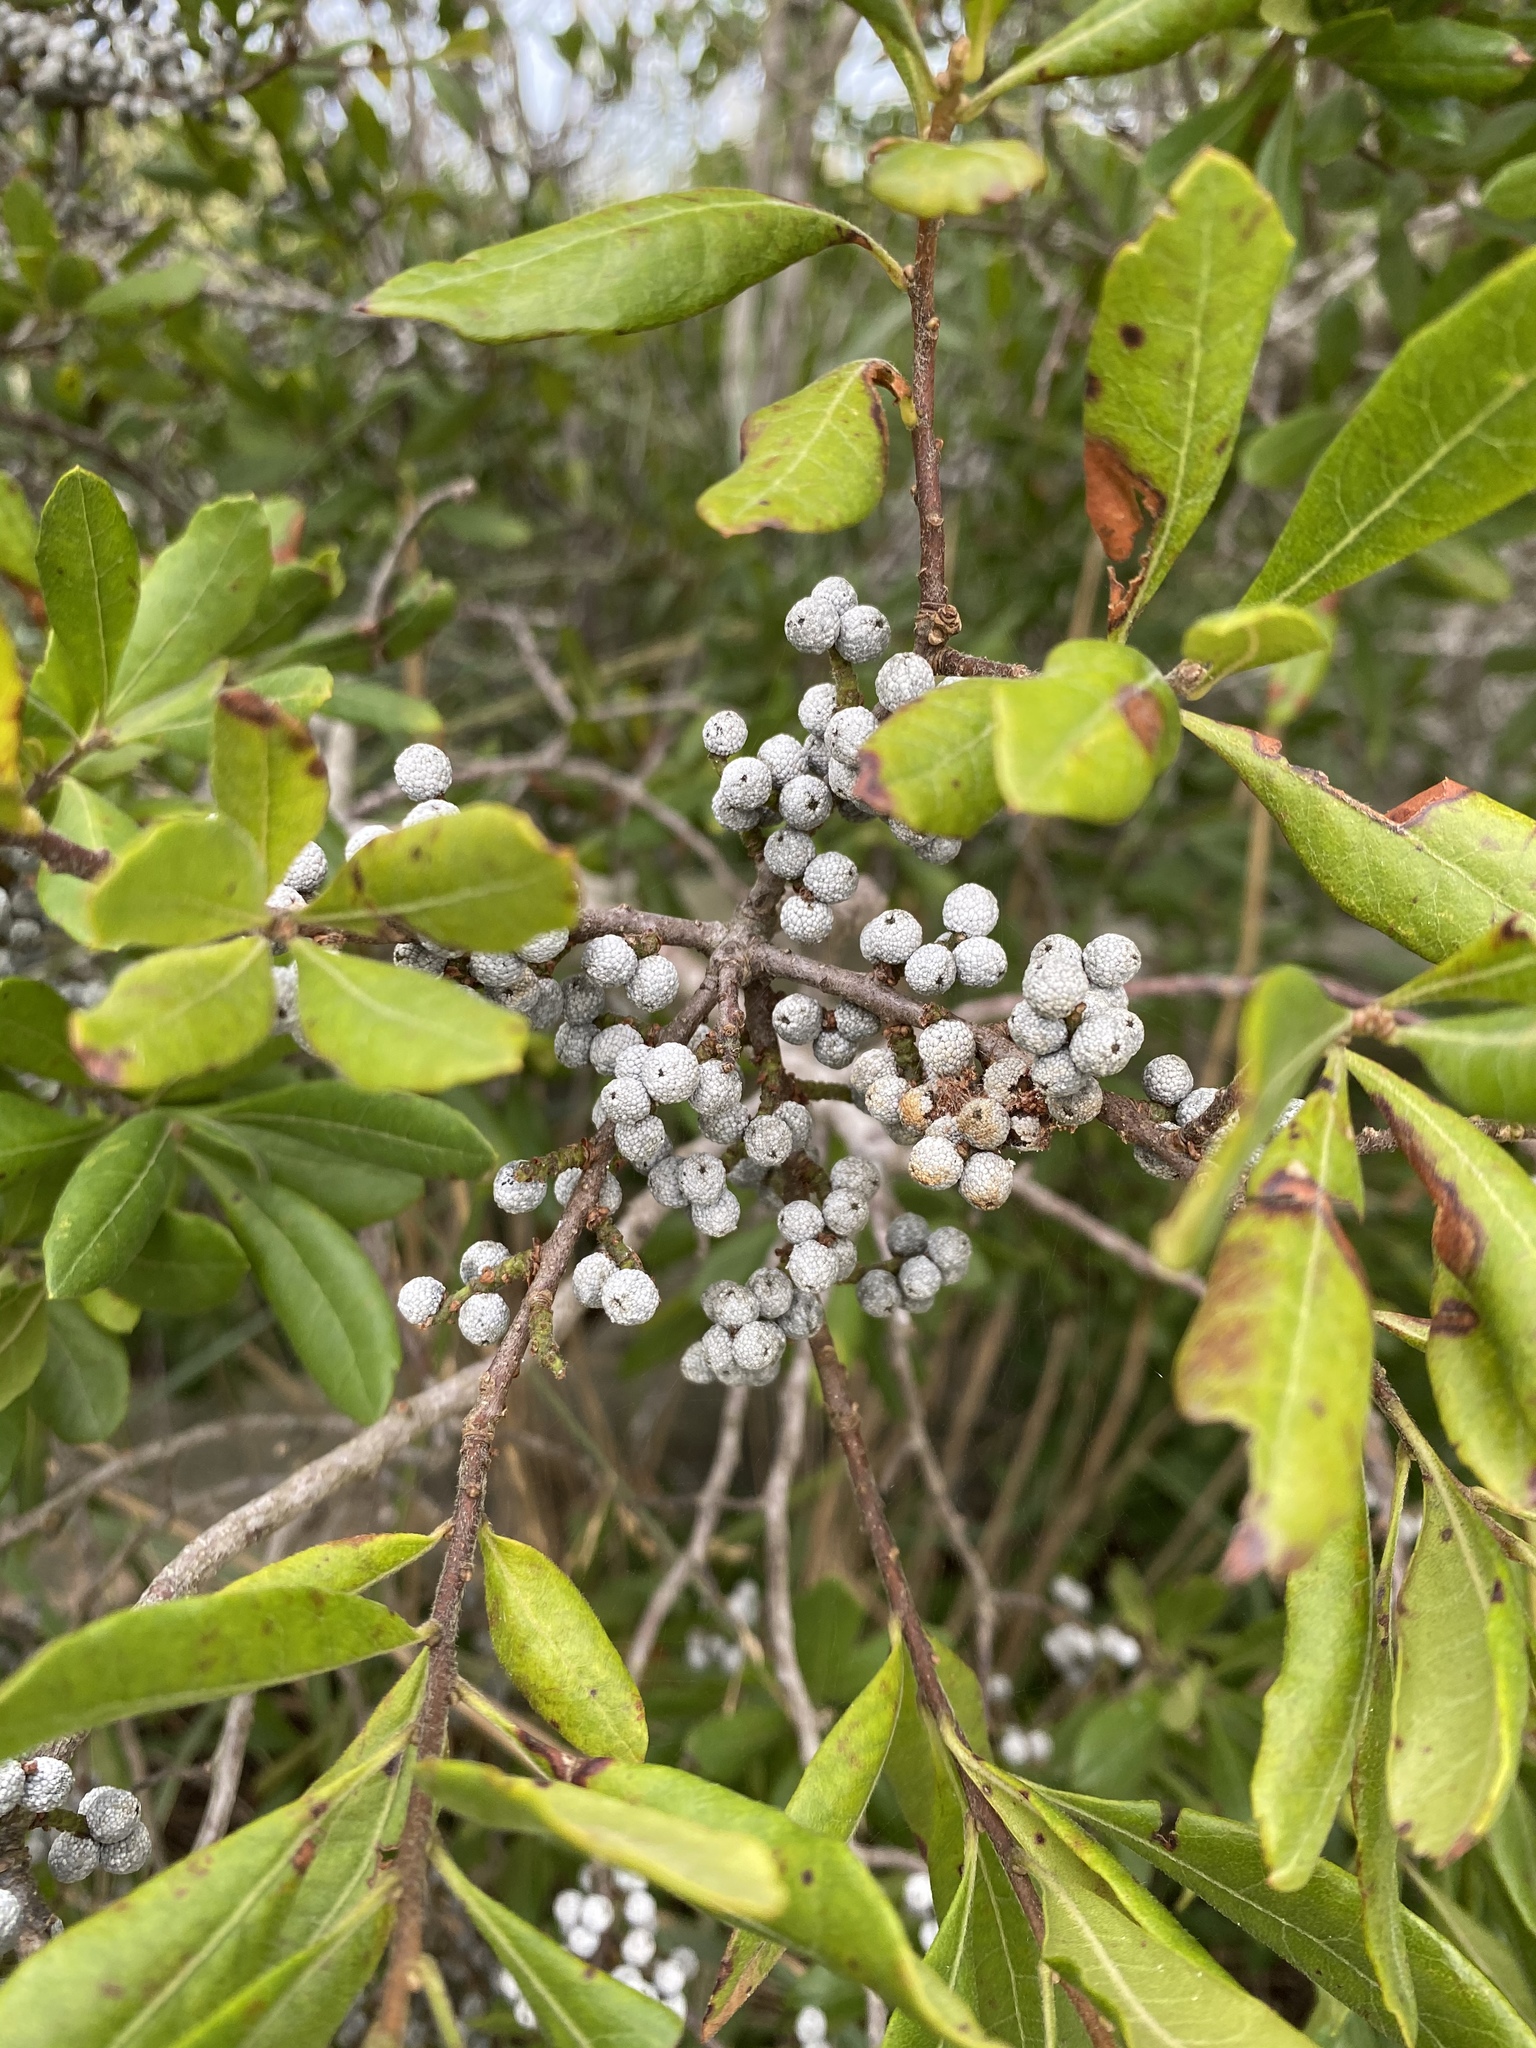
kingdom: Plantae
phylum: Tracheophyta
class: Magnoliopsida
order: Fagales
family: Myricaceae
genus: Morella
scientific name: Morella pensylvanica
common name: Northern bayberry
